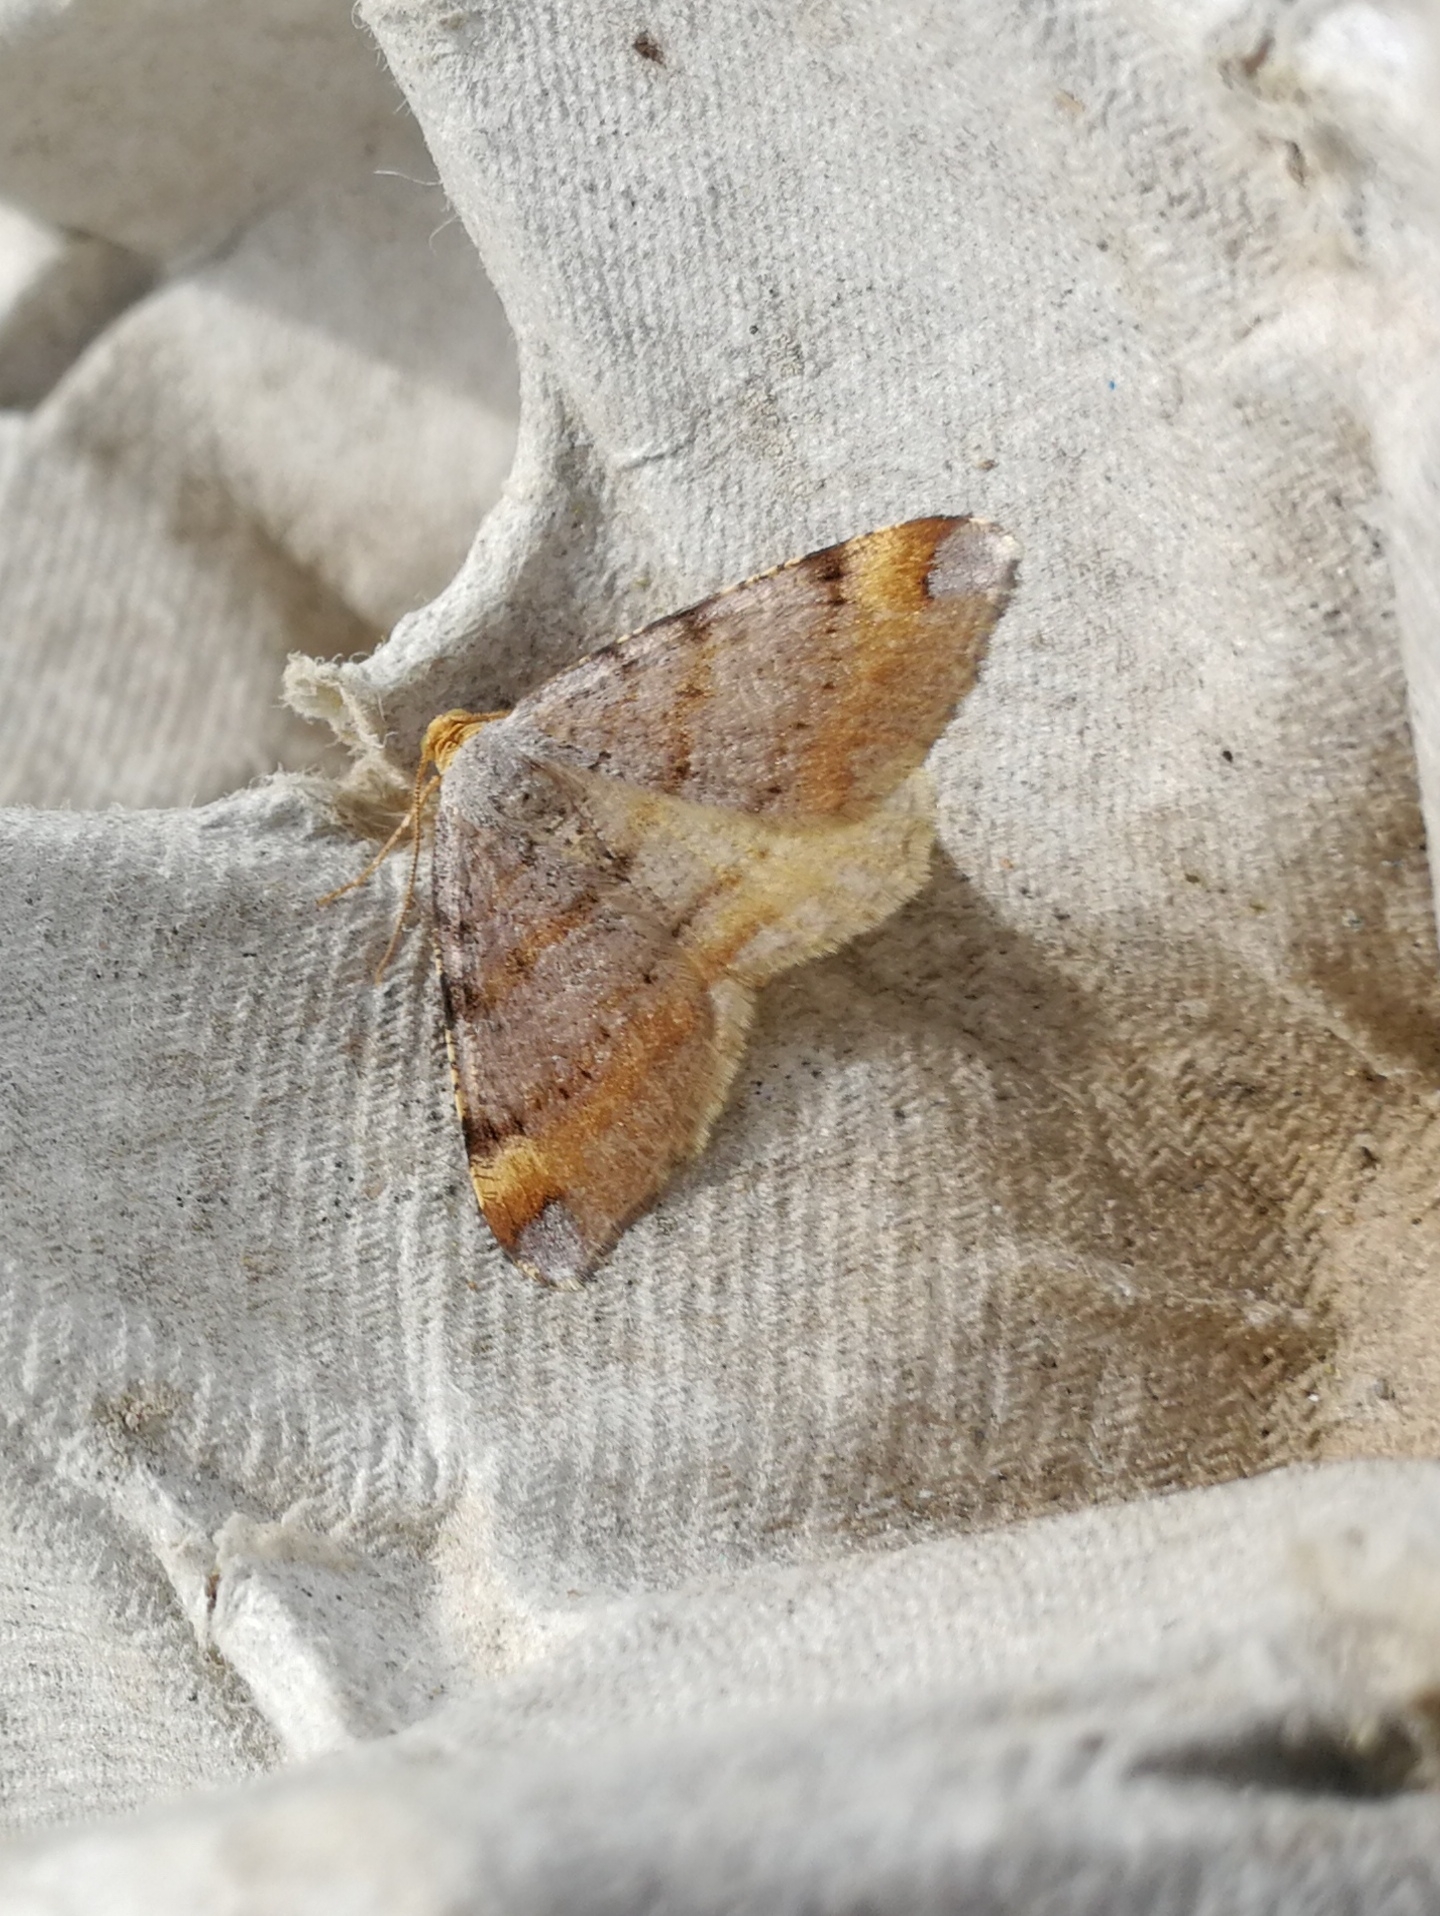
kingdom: Animalia
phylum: Arthropoda
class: Insecta
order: Lepidoptera
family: Geometridae
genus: Macaria
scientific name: Macaria liturata
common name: Tawny-barred angle
